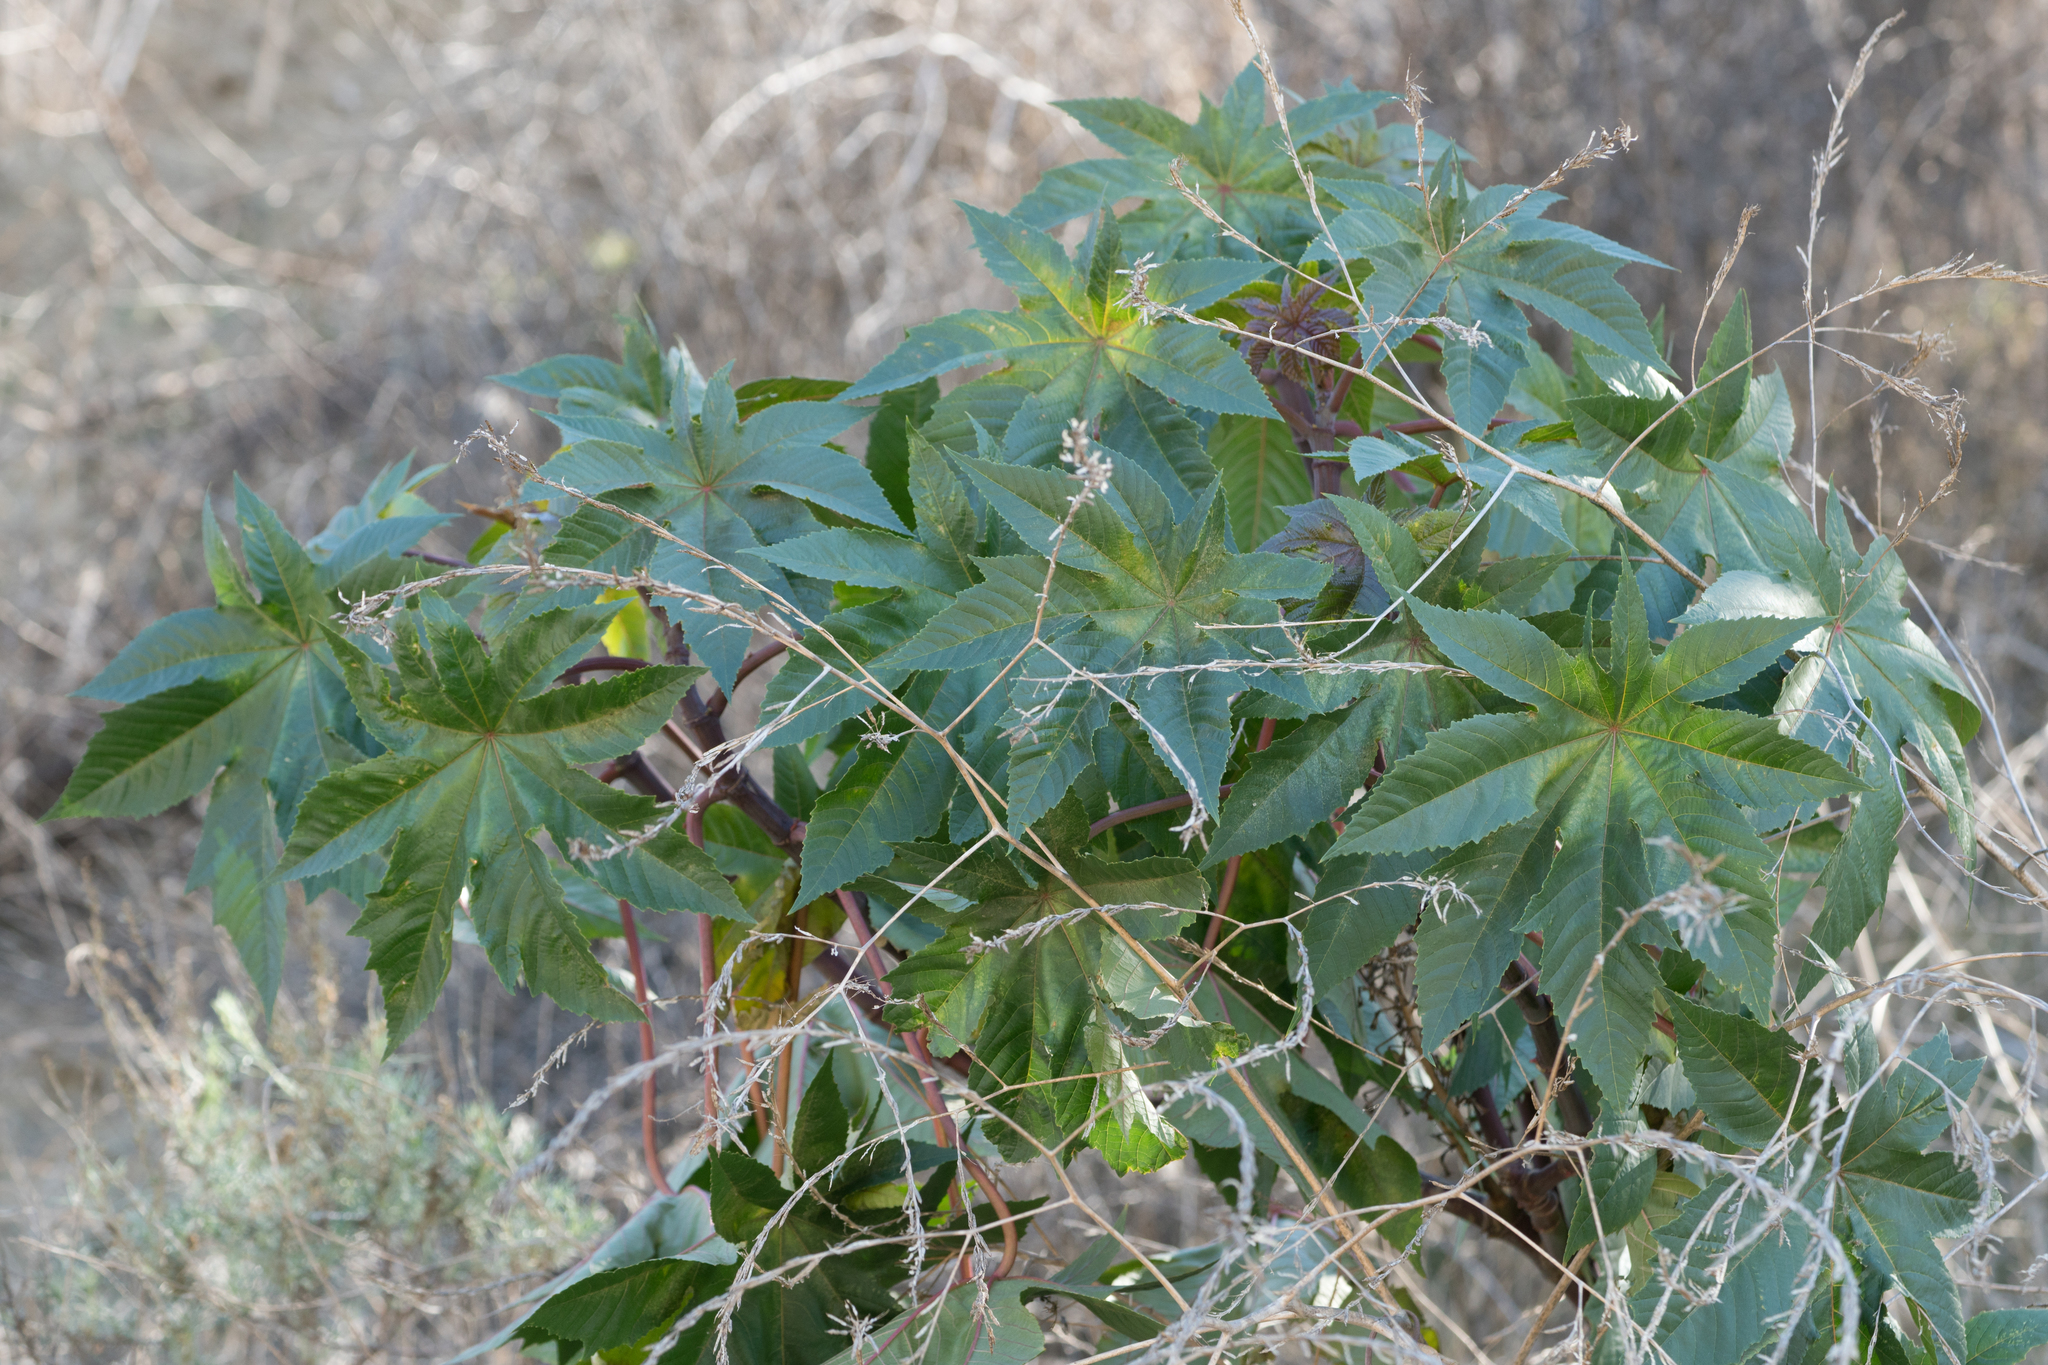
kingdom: Plantae
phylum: Tracheophyta
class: Magnoliopsida
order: Malpighiales
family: Euphorbiaceae
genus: Ricinus
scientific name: Ricinus communis
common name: Castor-oil-plant
